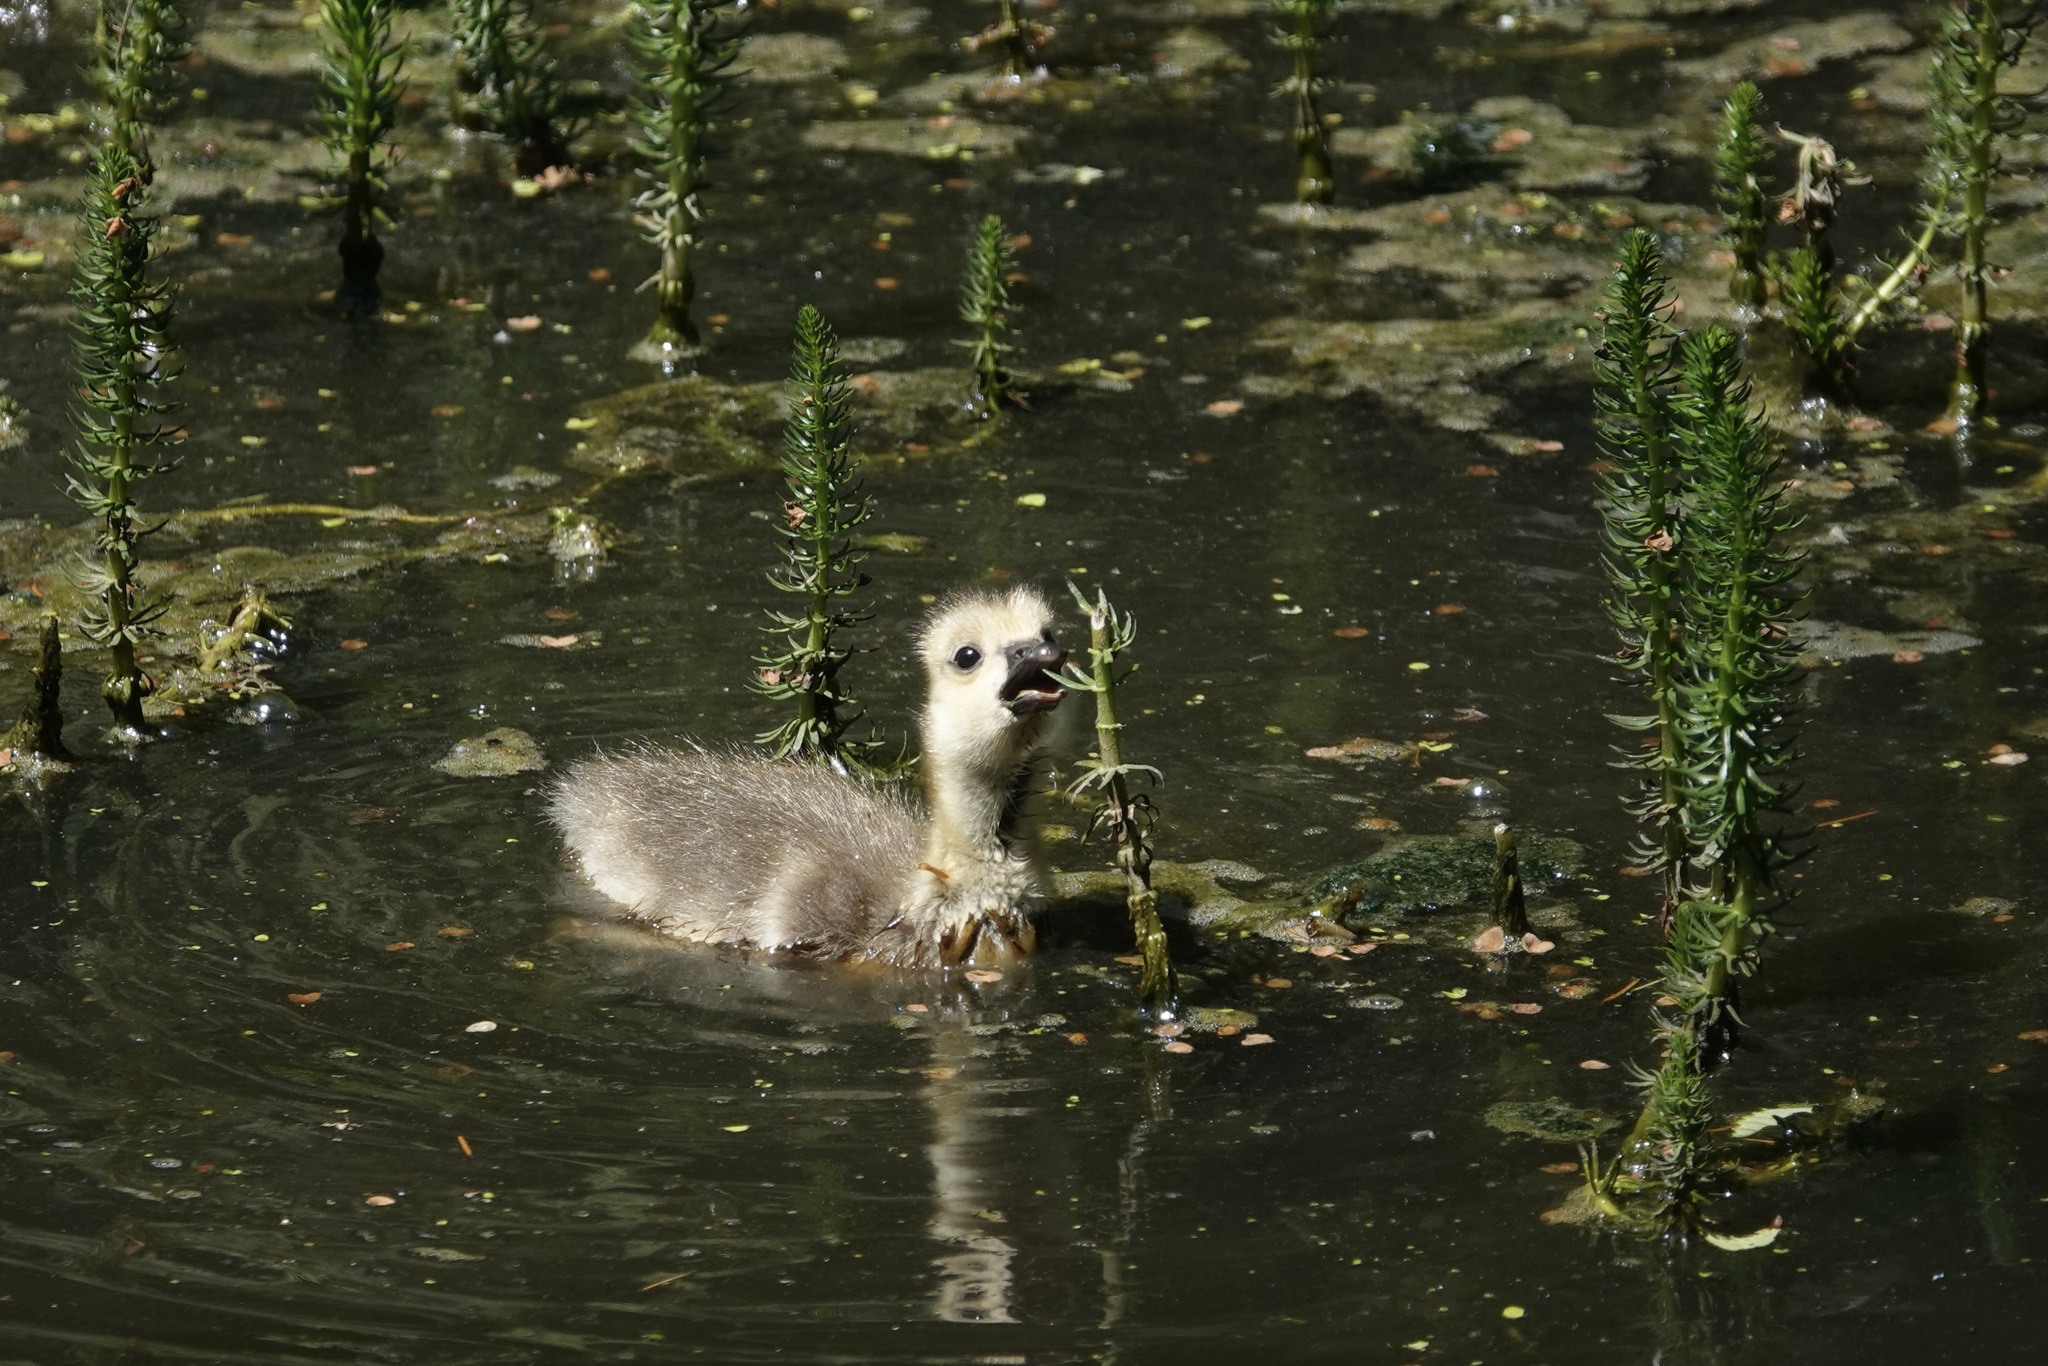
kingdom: Animalia
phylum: Chordata
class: Aves
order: Anseriformes
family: Anatidae
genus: Branta
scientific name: Branta canadensis
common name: Canada goose
